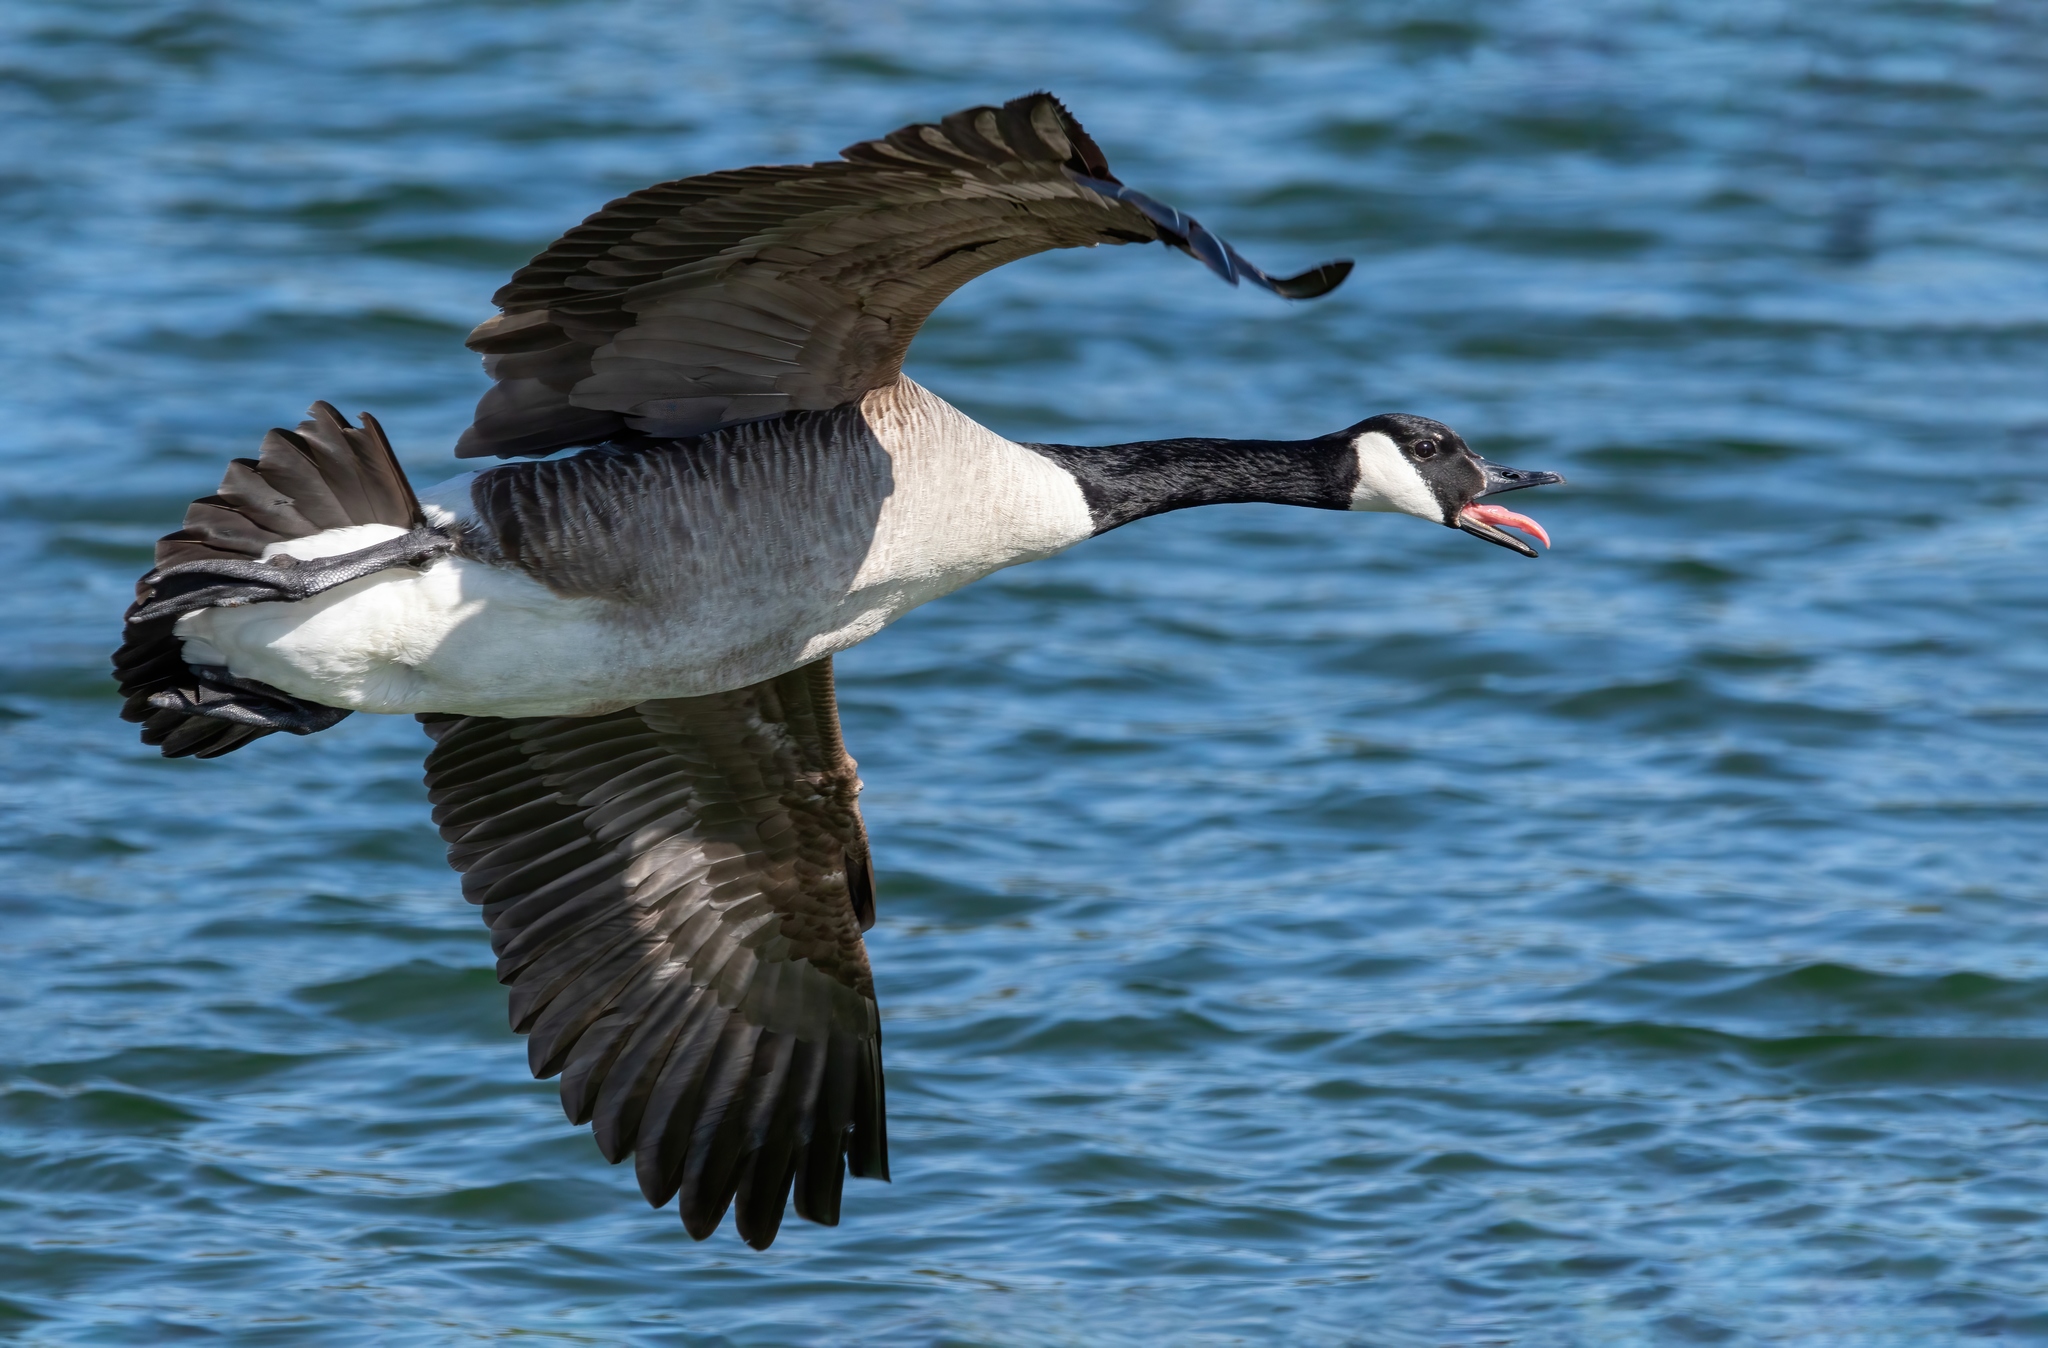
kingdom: Animalia
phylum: Chordata
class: Aves
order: Anseriformes
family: Anatidae
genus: Branta
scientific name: Branta canadensis
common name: Canada goose
